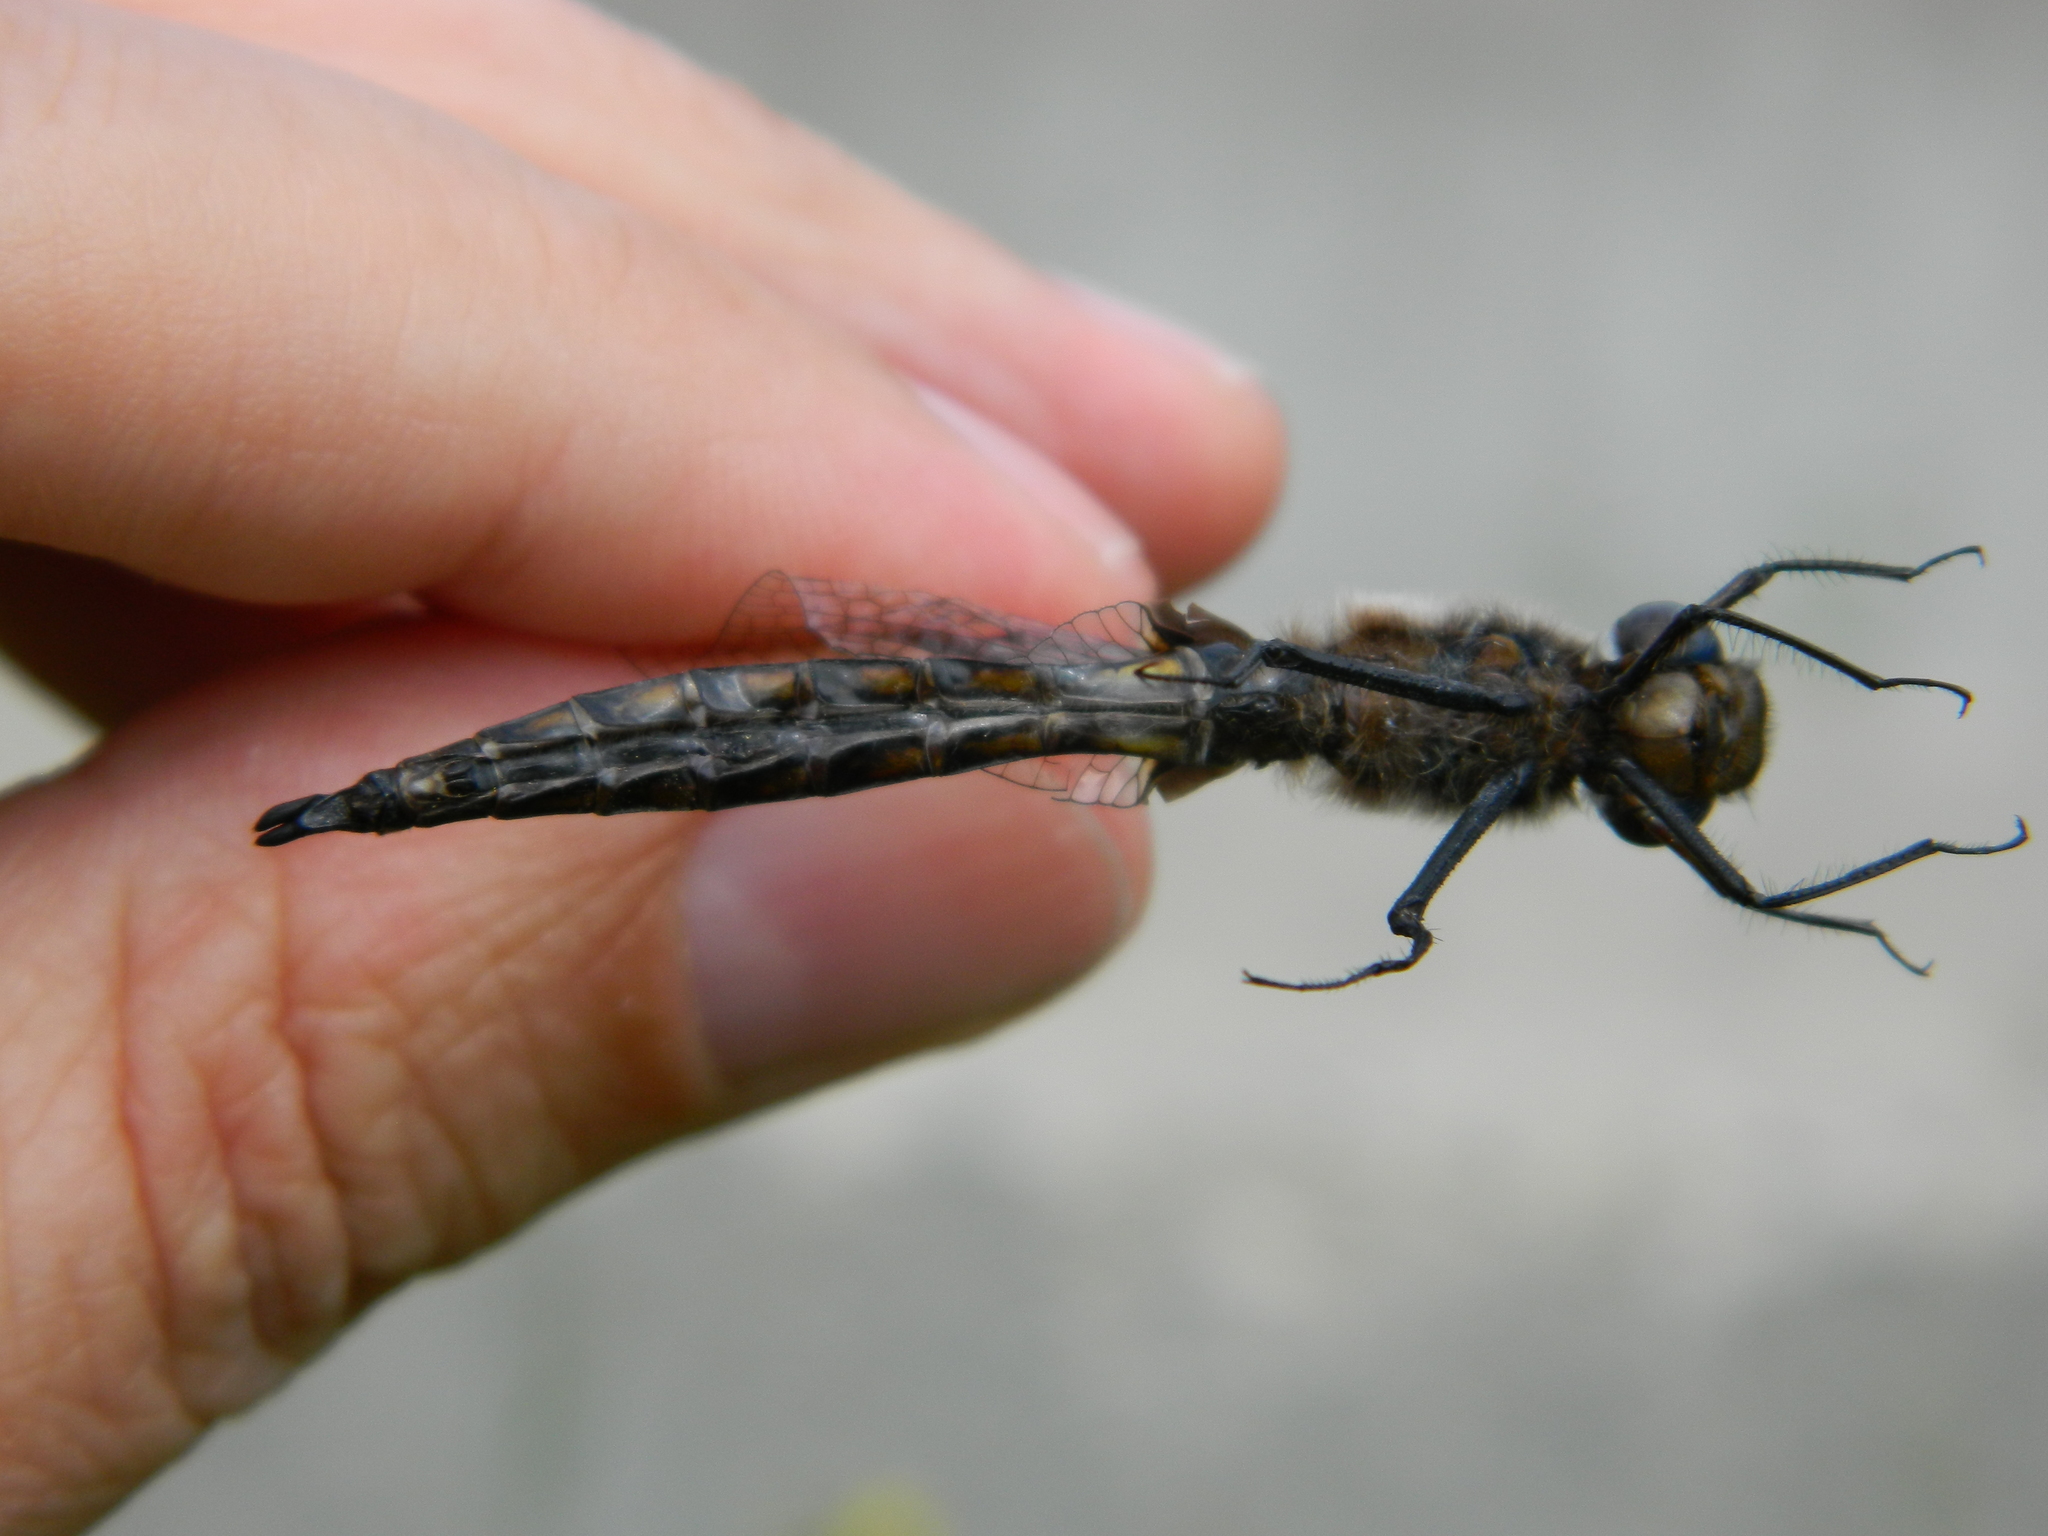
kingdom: Animalia
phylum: Arthropoda
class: Insecta
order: Odonata
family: Corduliidae
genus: Epitheca
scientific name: Epitheca spinigera
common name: Spiny baskettail
